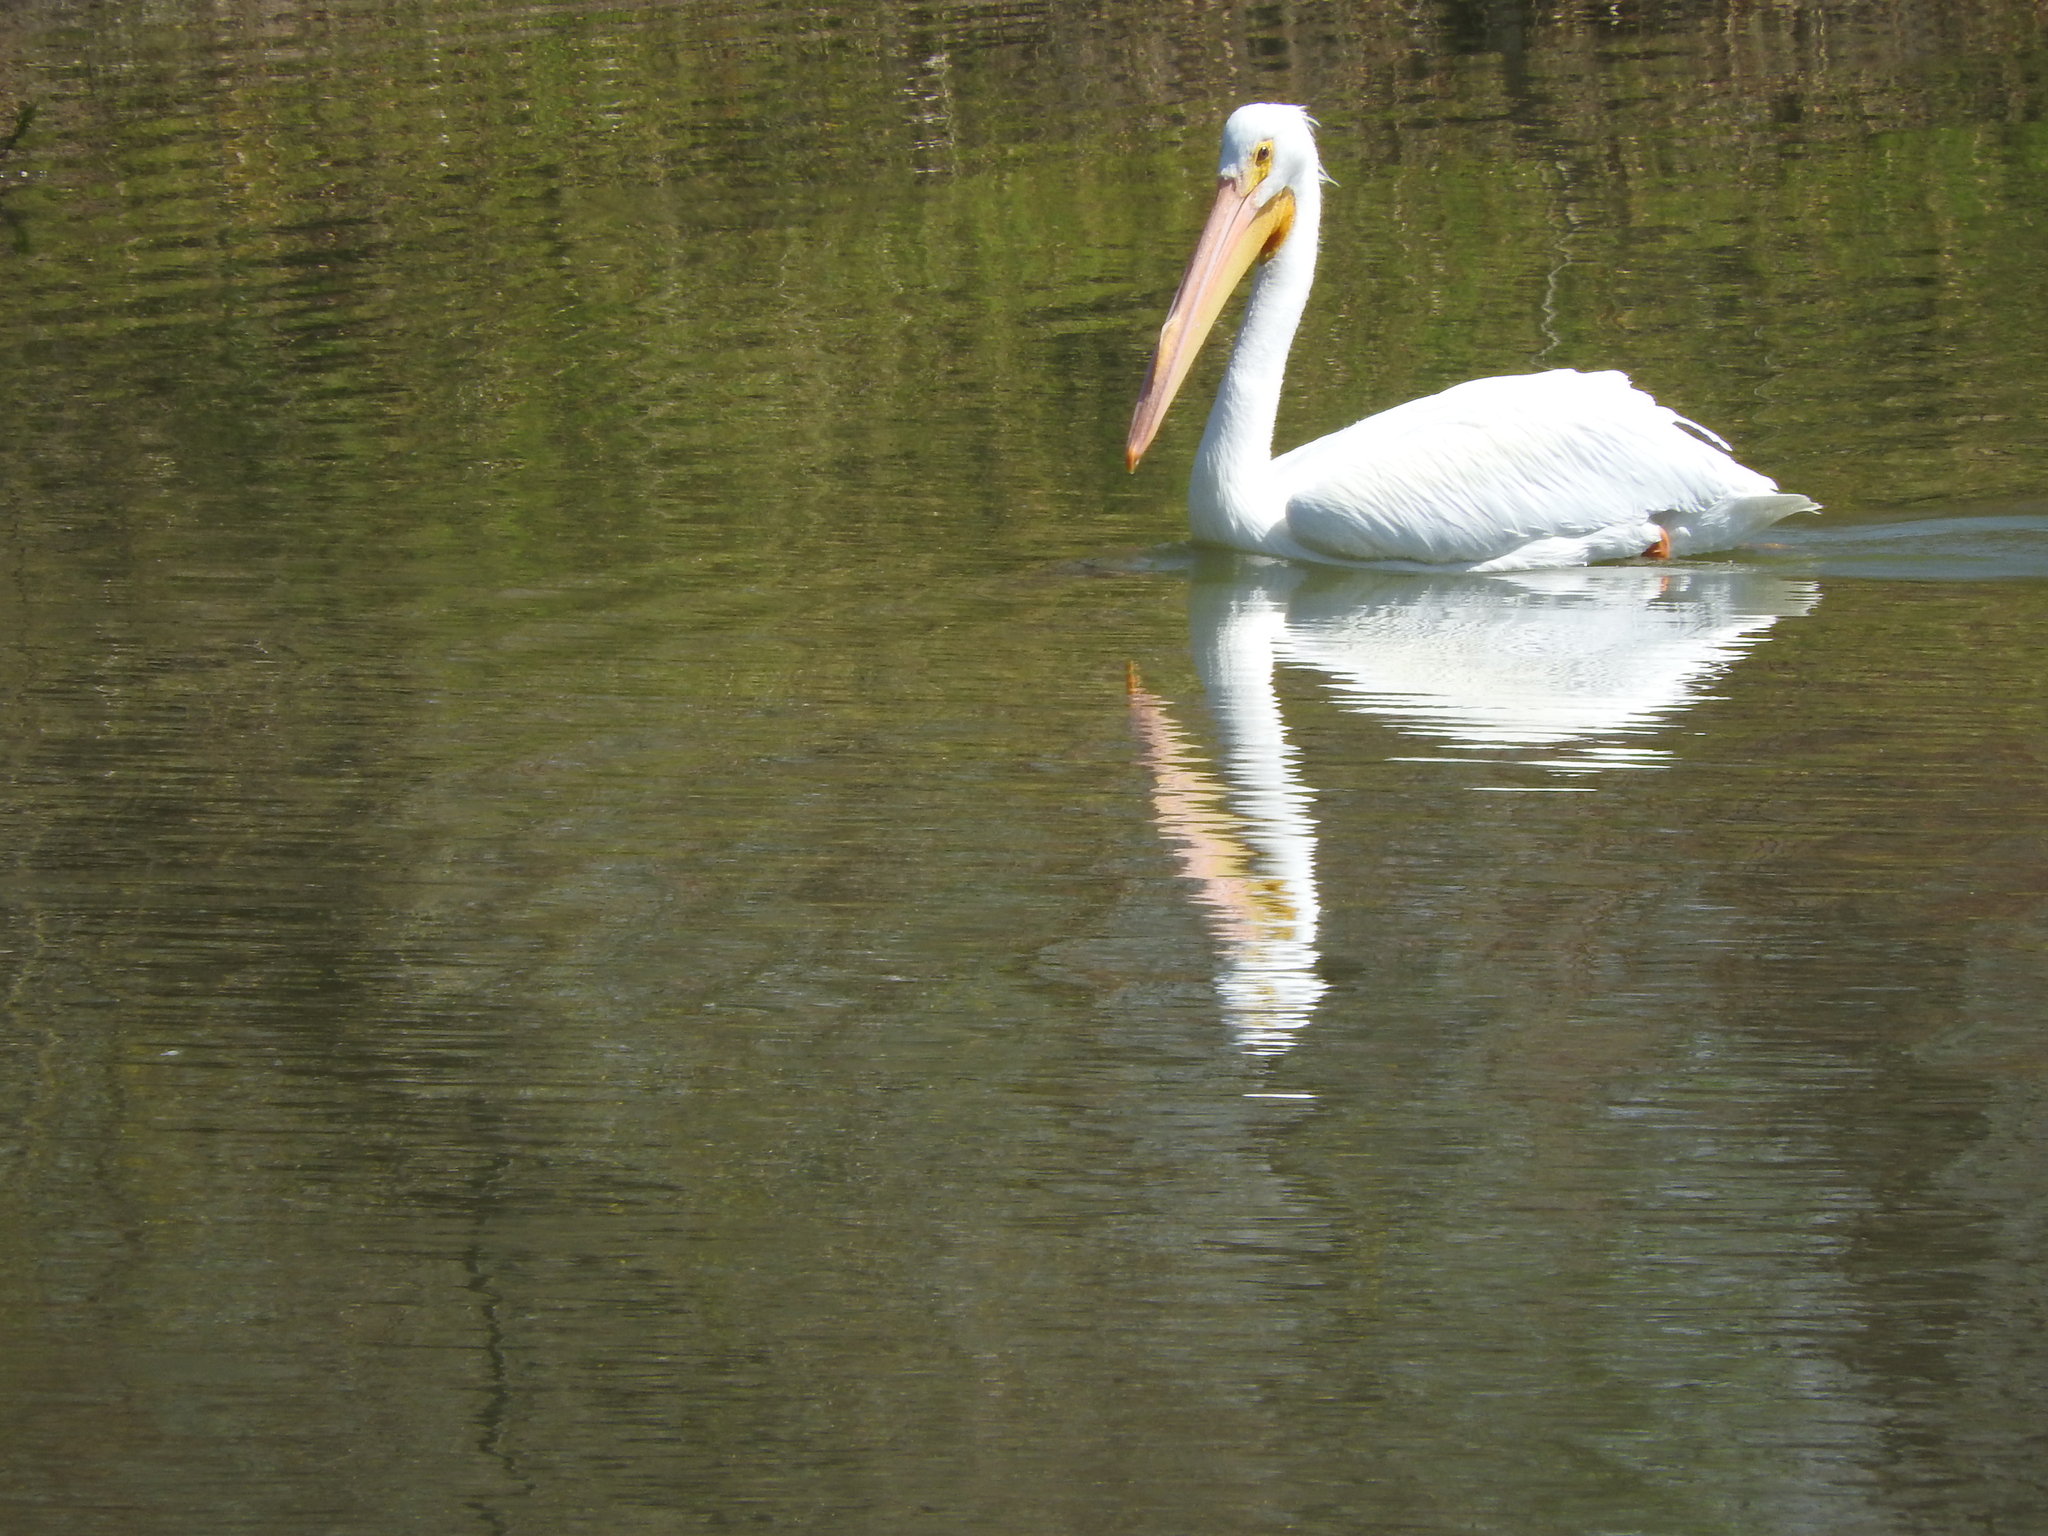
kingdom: Animalia
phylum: Chordata
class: Aves
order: Pelecaniformes
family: Pelecanidae
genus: Pelecanus
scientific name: Pelecanus erythrorhynchos
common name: American white pelican
